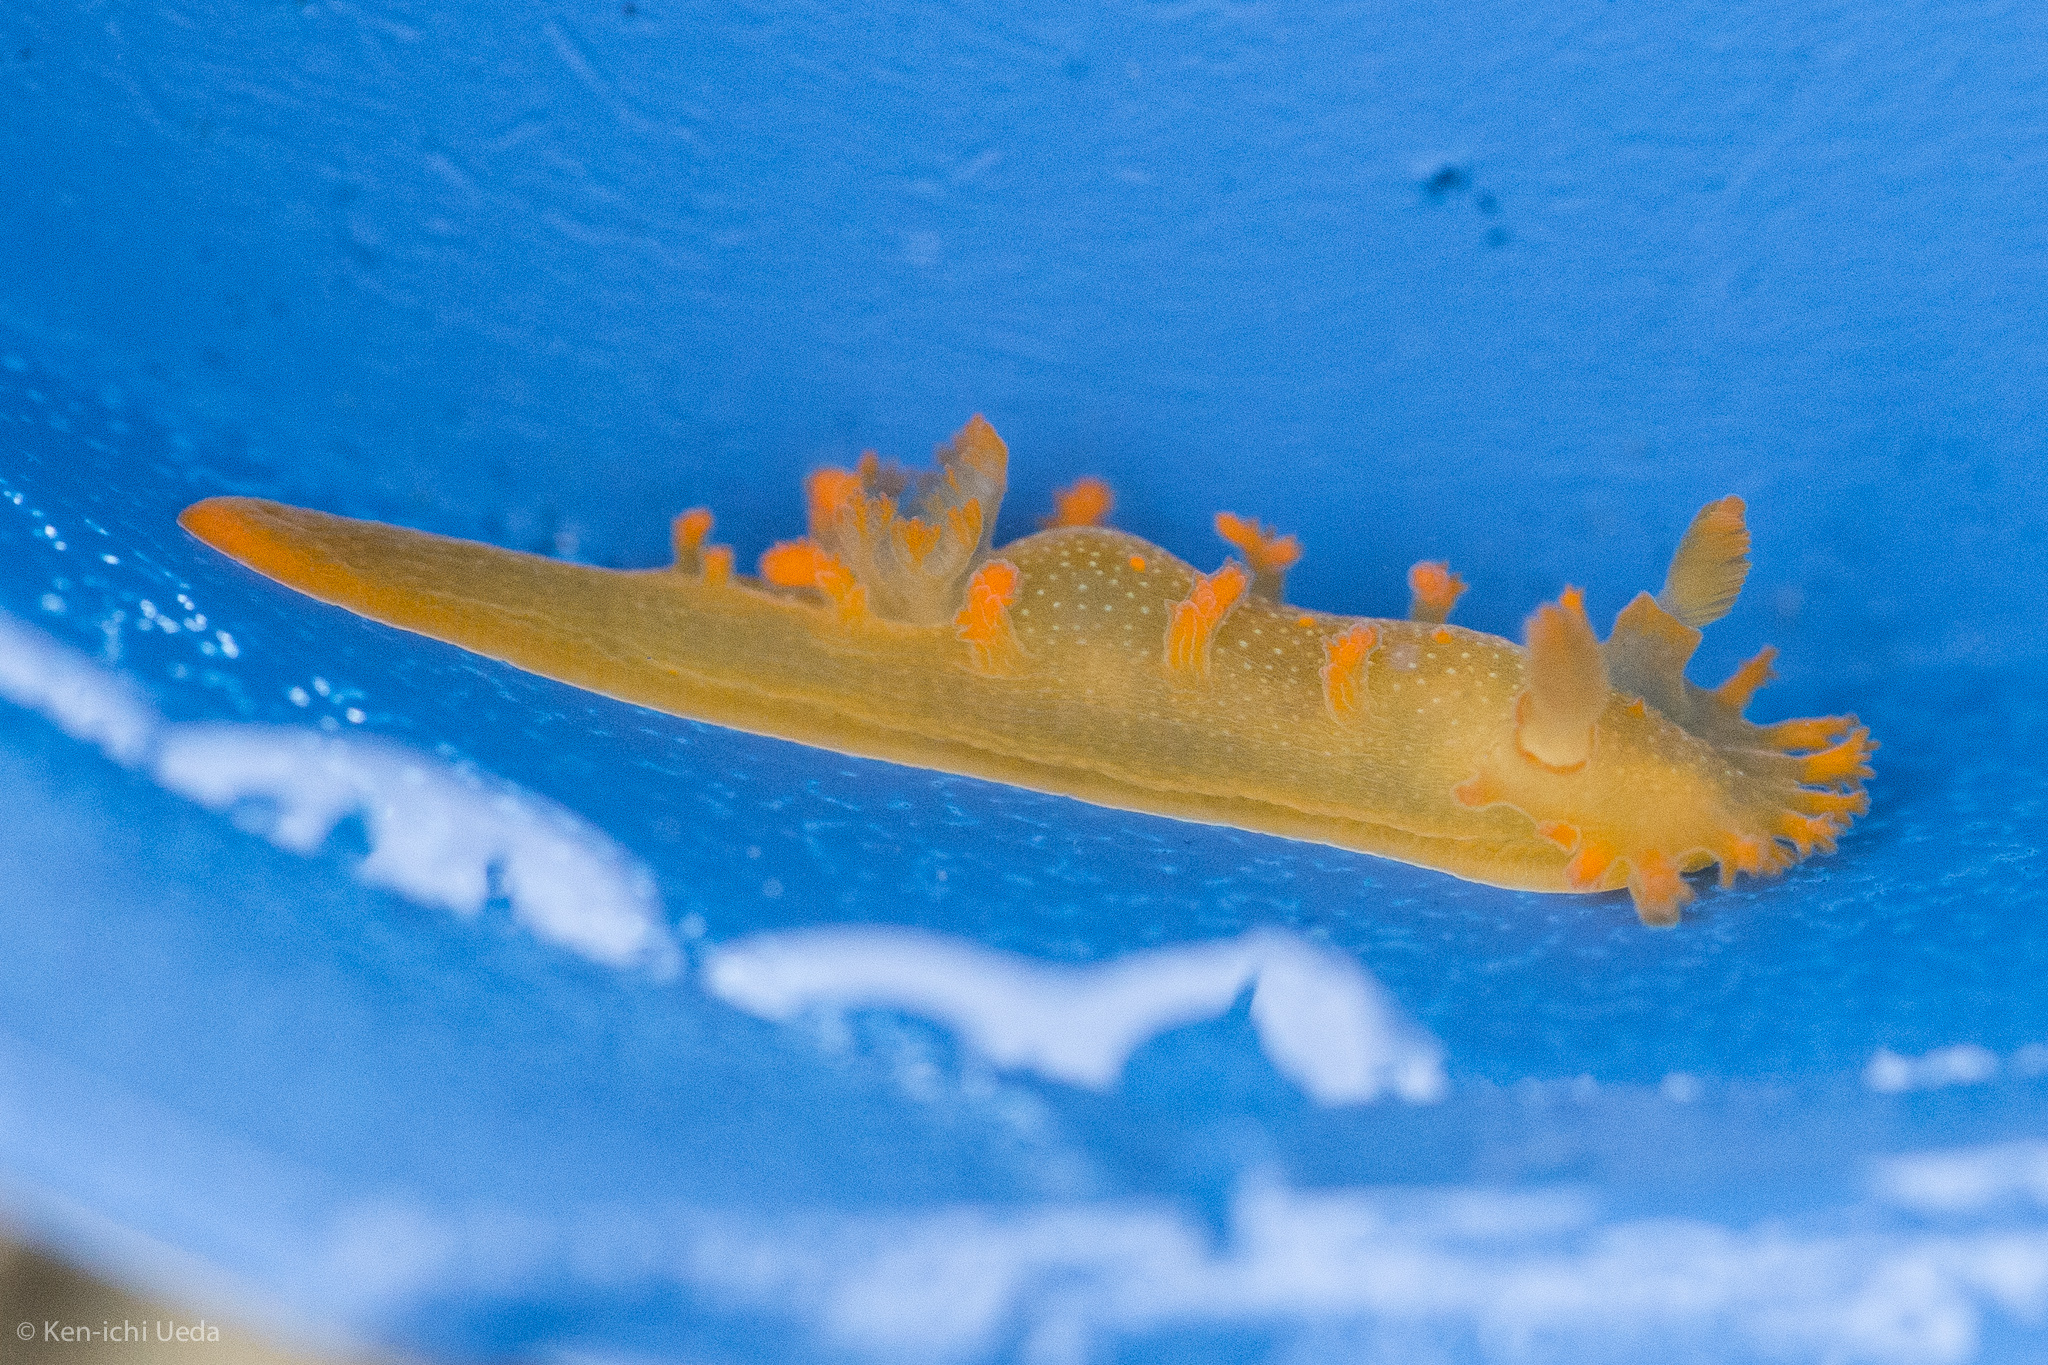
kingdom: Animalia
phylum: Mollusca
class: Gastropoda
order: Nudibranchia
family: Polyceridae
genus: Triopha
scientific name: Triopha maculata
